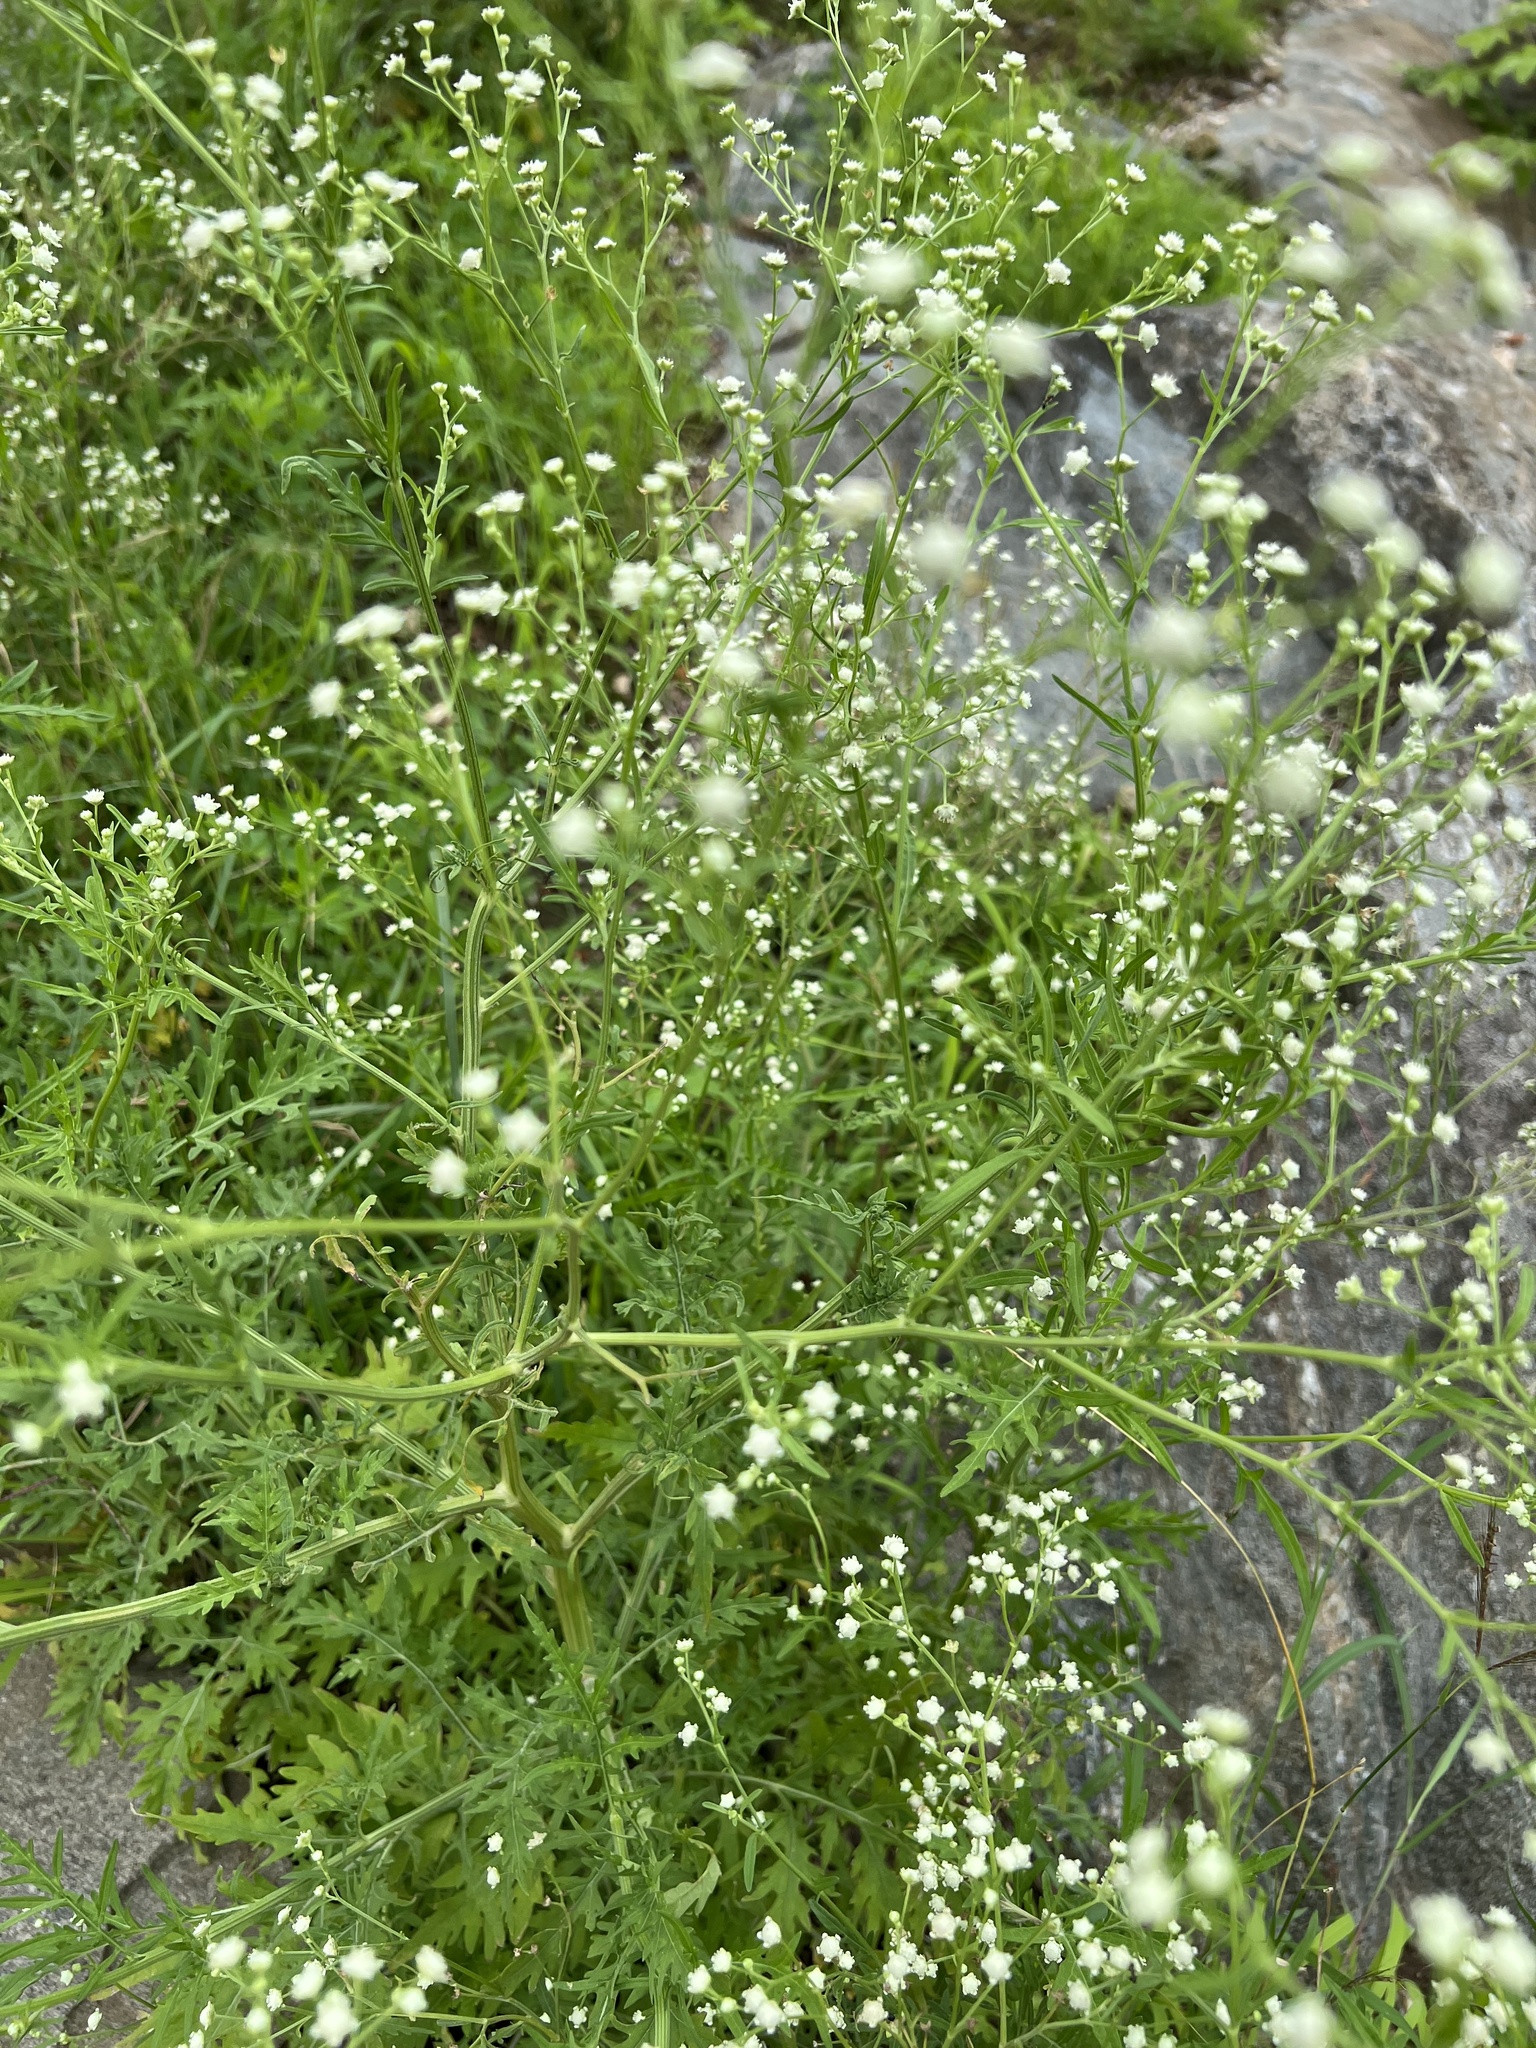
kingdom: Plantae
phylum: Tracheophyta
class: Magnoliopsida
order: Asterales
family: Asteraceae
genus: Parthenium
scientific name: Parthenium hysterophorus
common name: Santa maria feverfew
